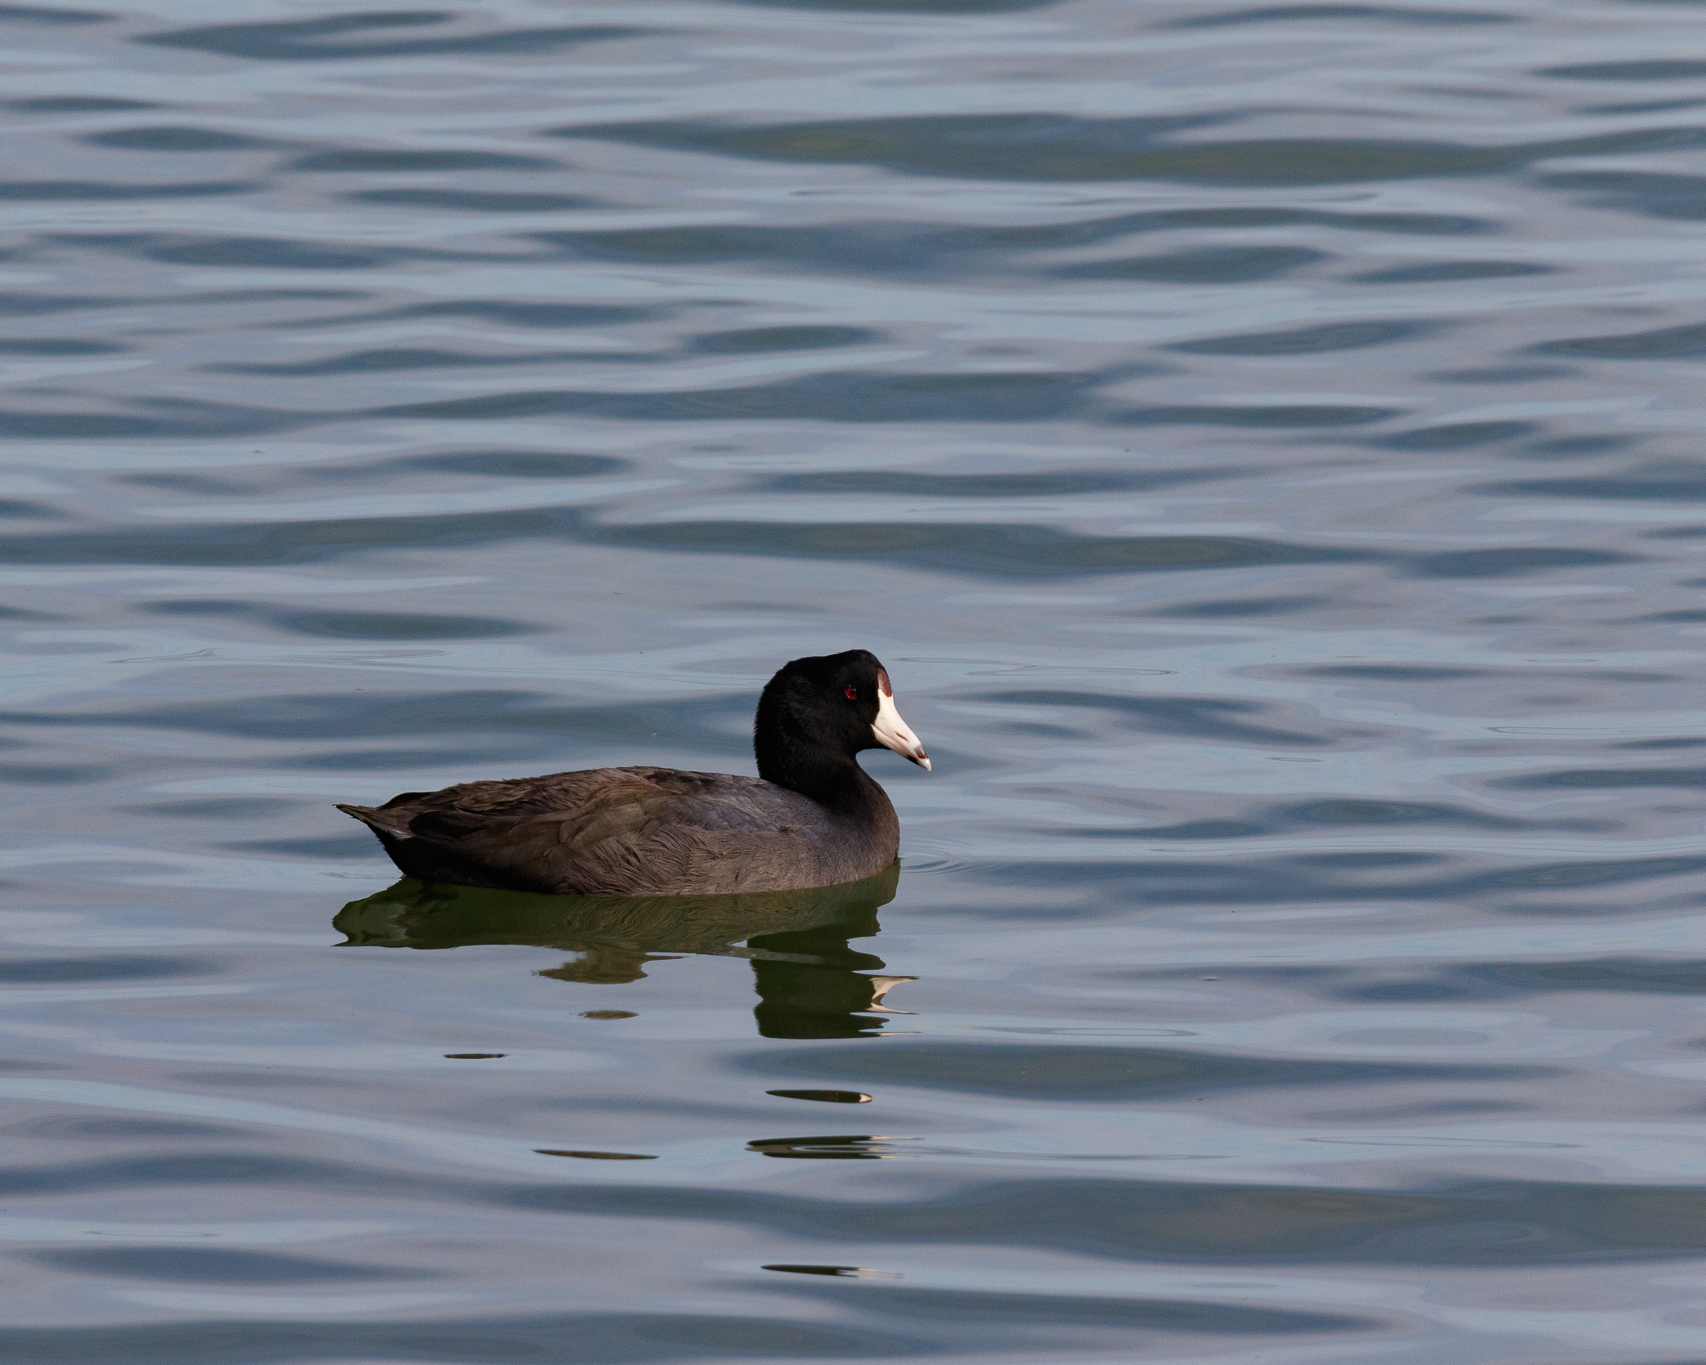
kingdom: Animalia
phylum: Chordata
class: Aves
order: Gruiformes
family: Rallidae
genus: Fulica
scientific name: Fulica americana
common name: American coot
